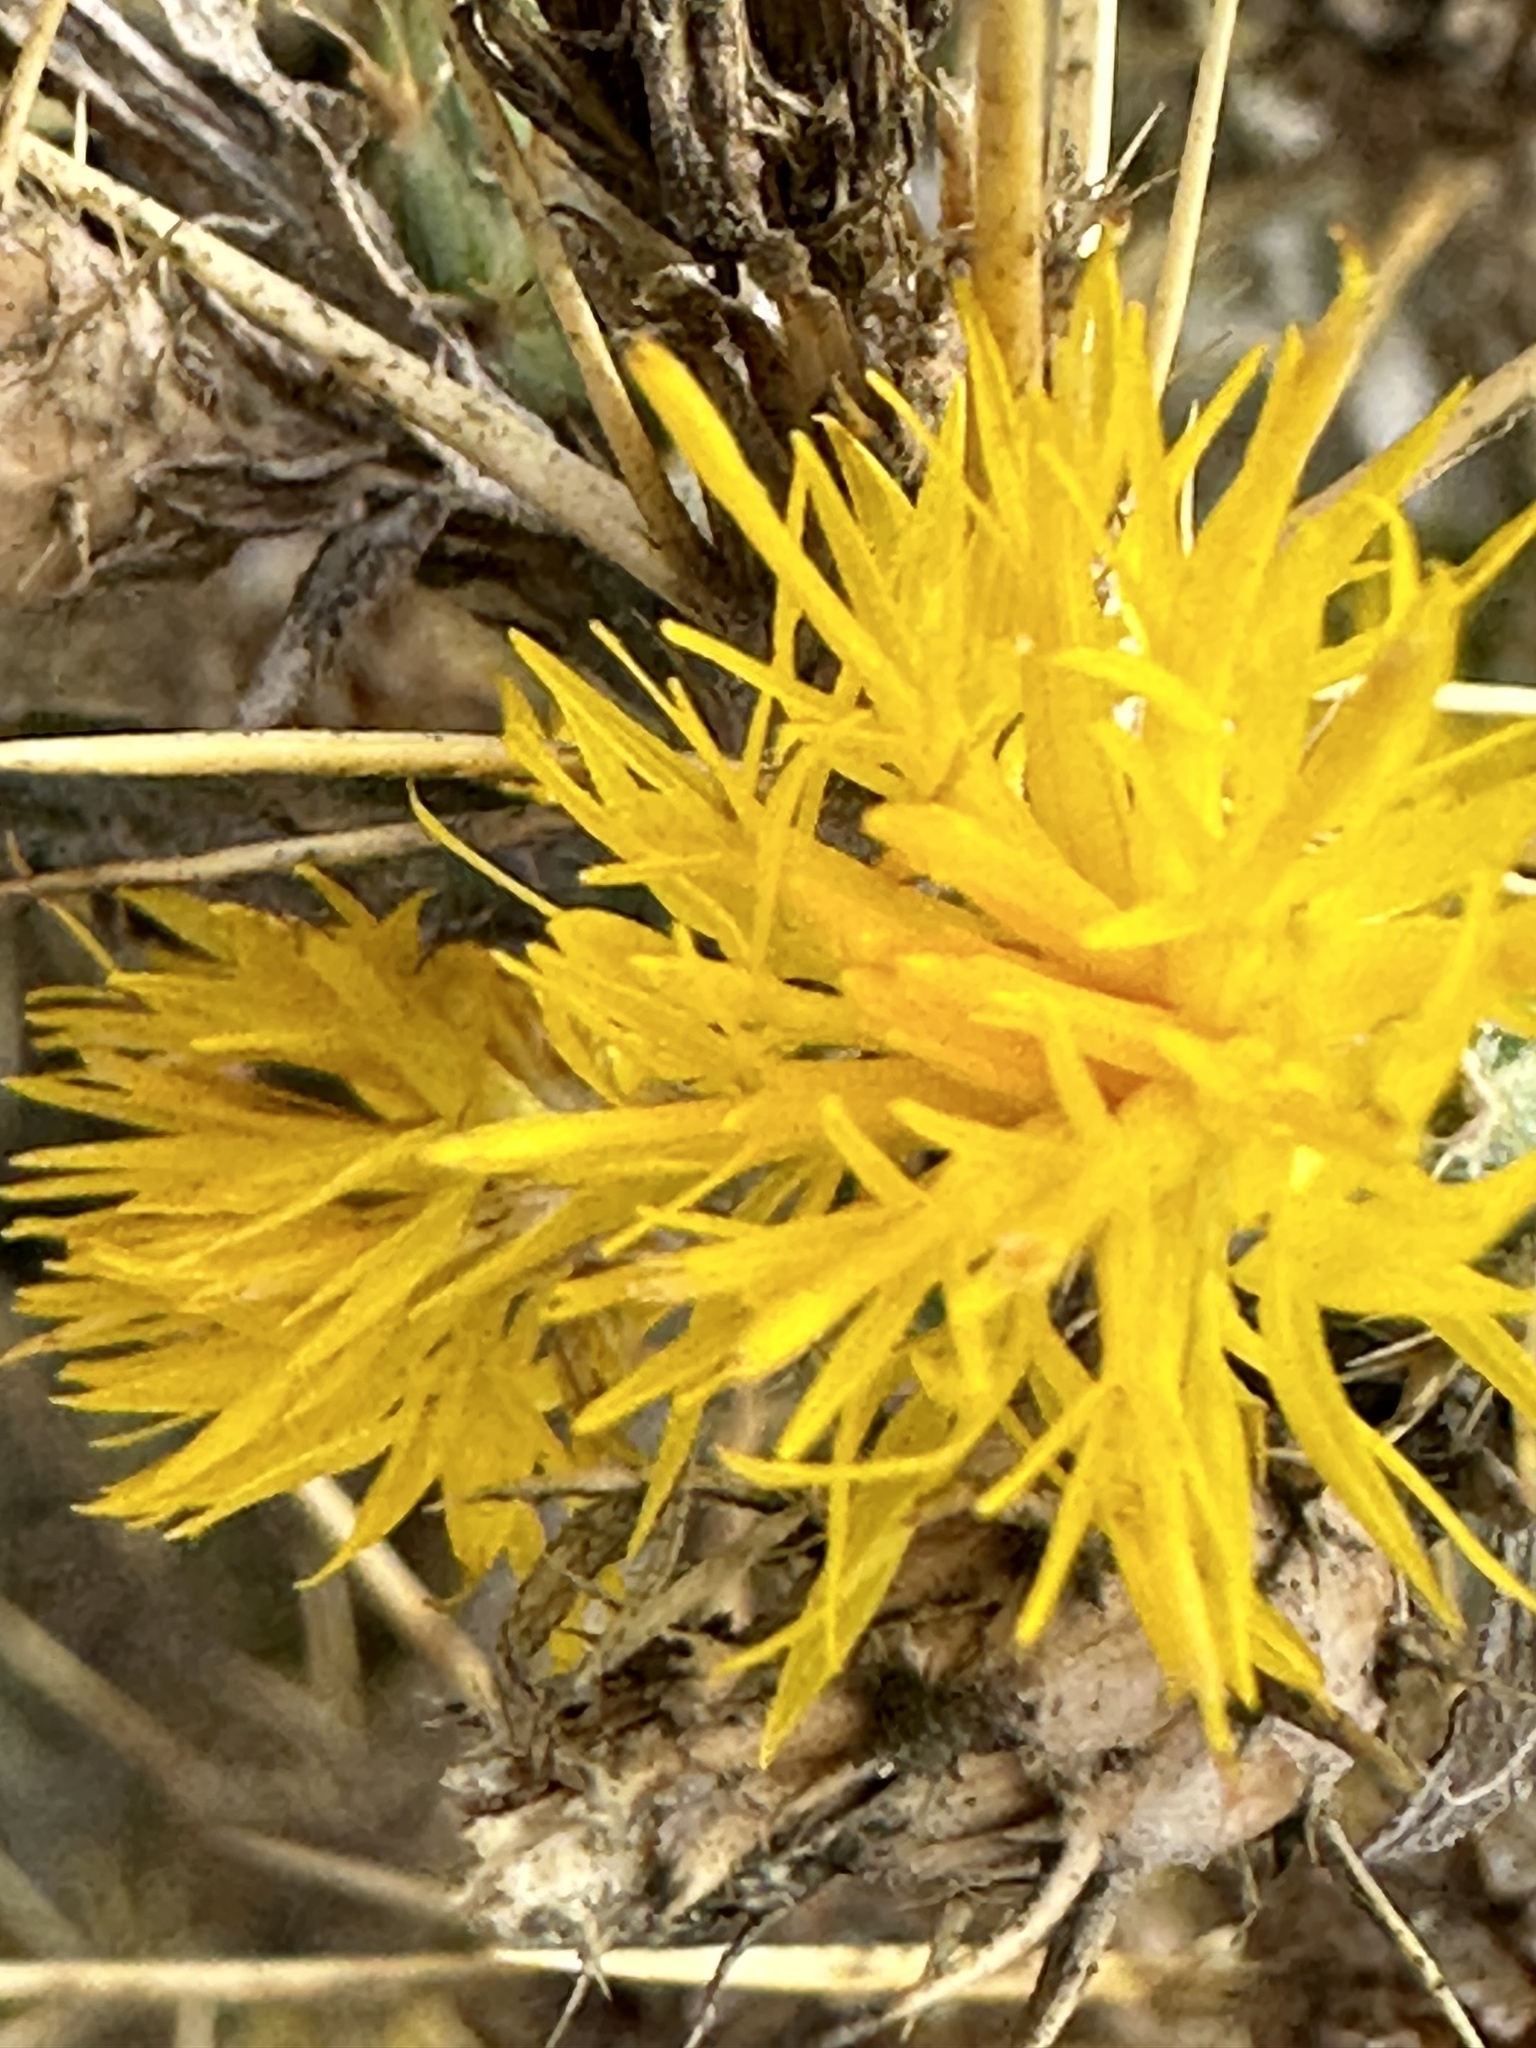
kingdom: Plantae
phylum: Tracheophyta
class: Magnoliopsida
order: Asterales
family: Asteraceae
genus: Centaurea
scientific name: Centaurea solstitialis
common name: Yellow star-thistle
